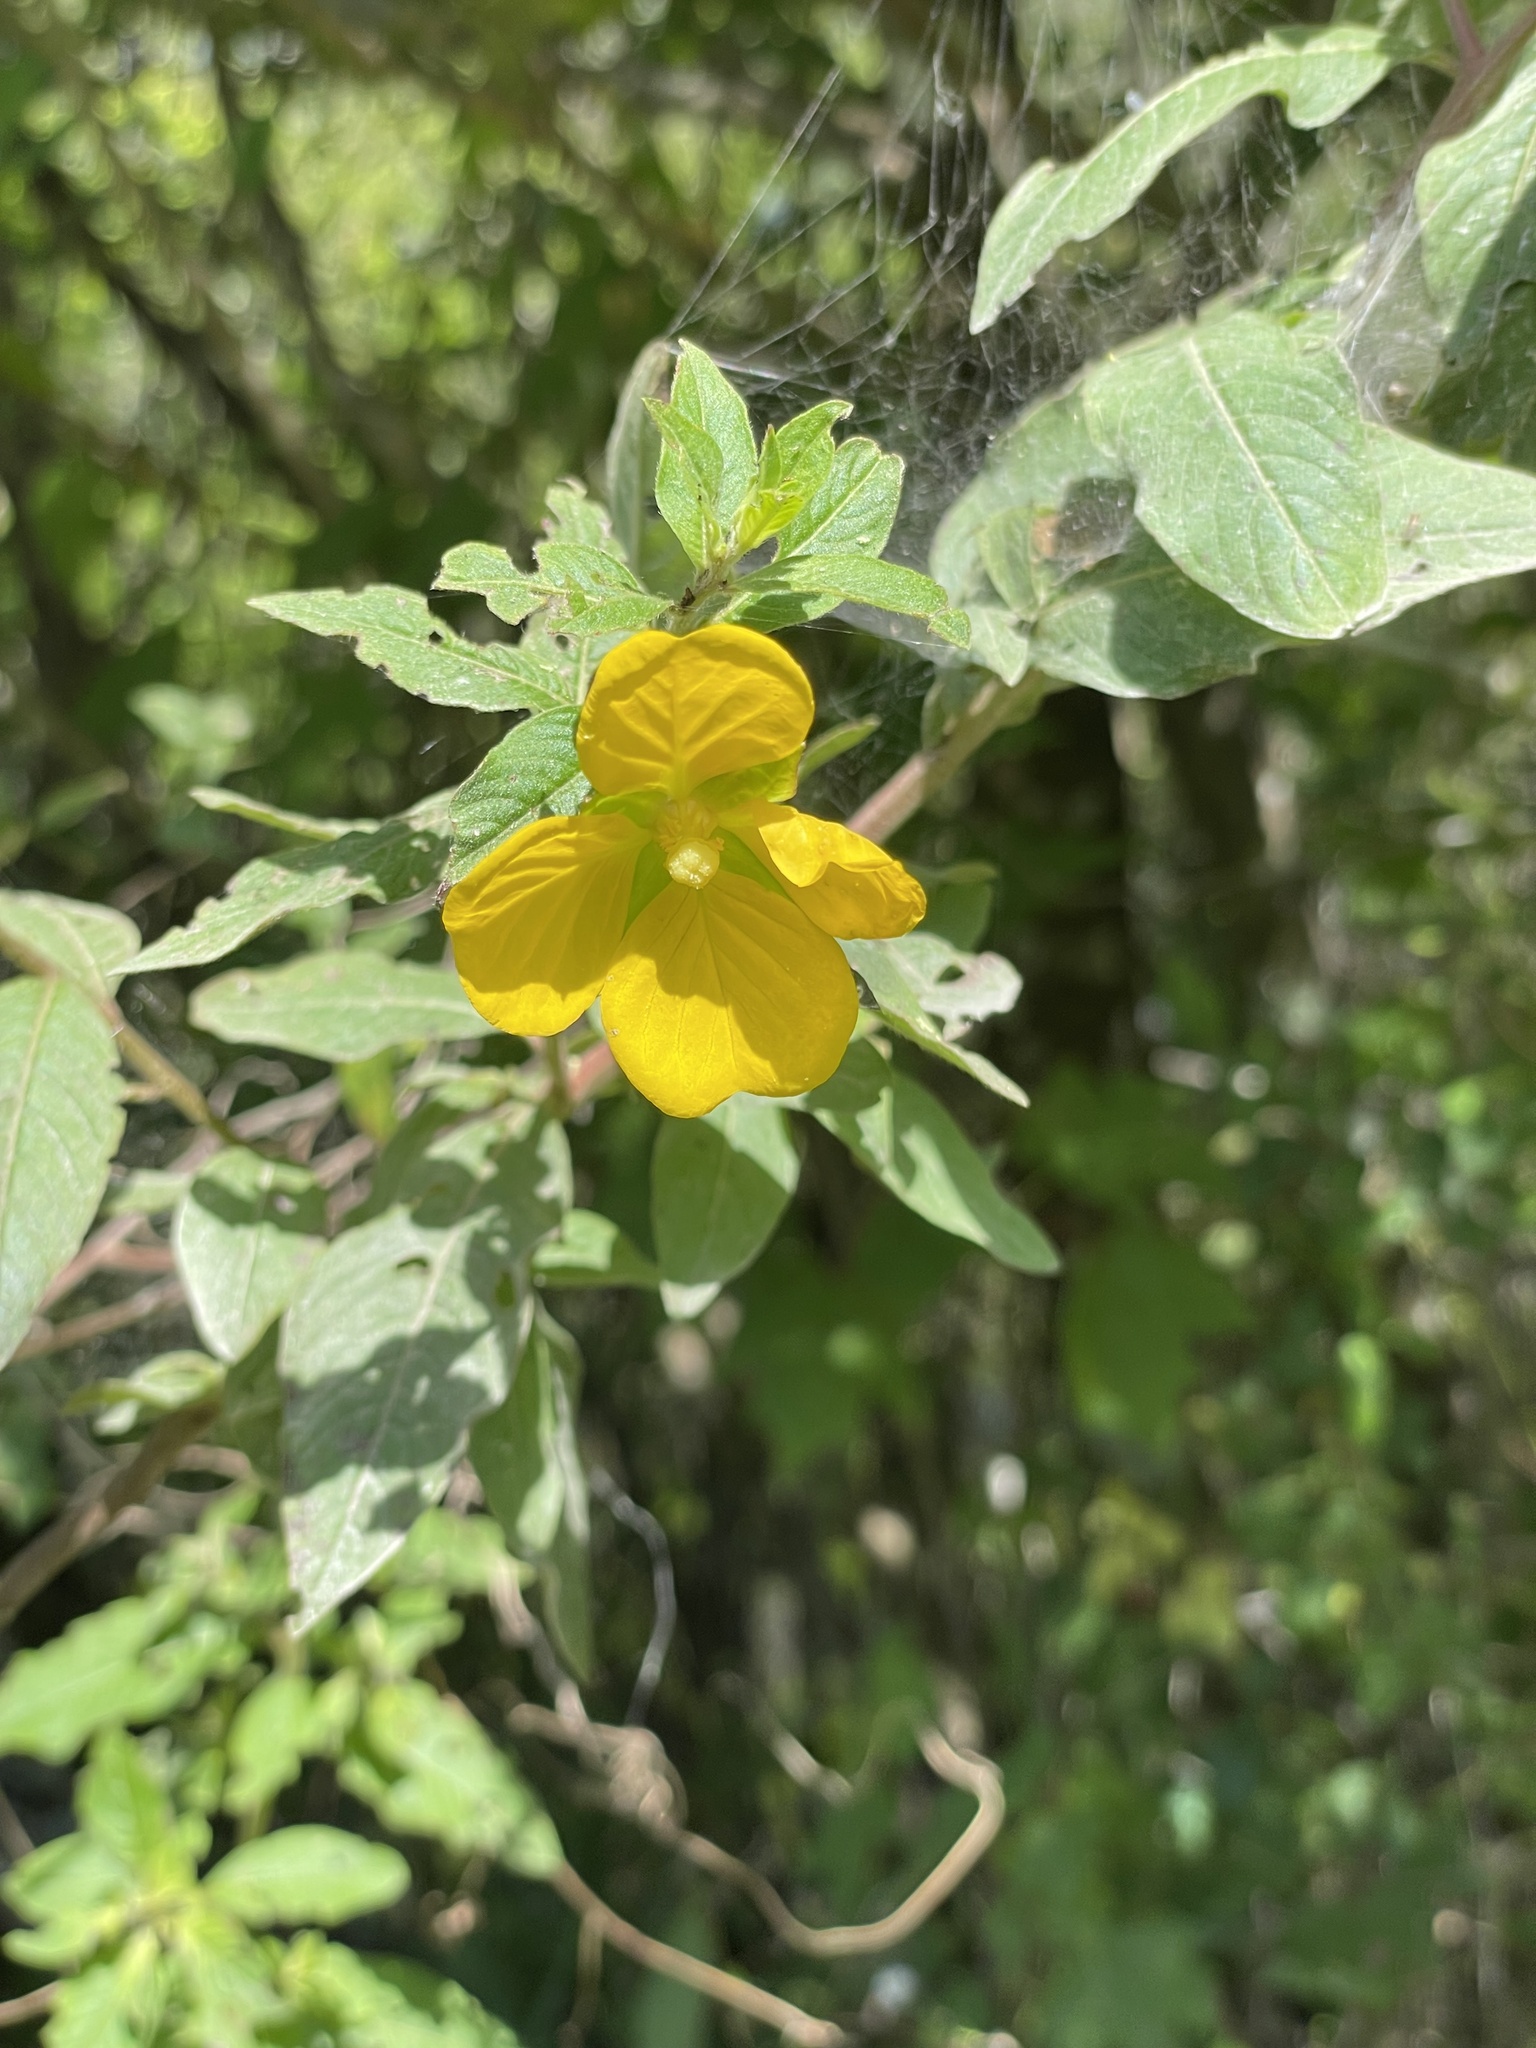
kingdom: Plantae
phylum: Tracheophyta
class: Magnoliopsida
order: Myrtales
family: Onagraceae
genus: Ludwigia
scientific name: Ludwigia octovalvis
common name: Water-primrose
